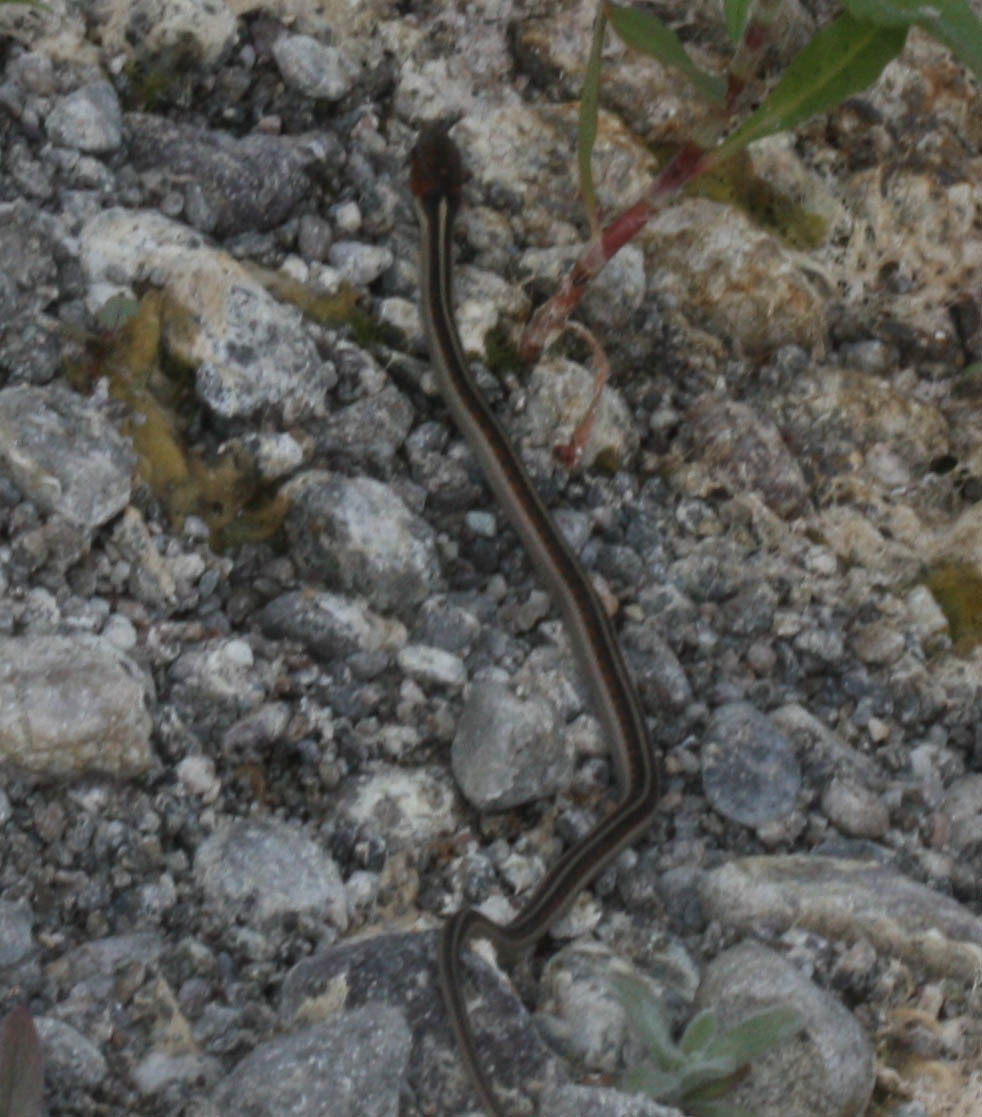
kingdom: Animalia
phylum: Chordata
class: Squamata
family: Colubridae
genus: Thamnophis
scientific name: Thamnophis sirtalis
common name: Common garter snake
